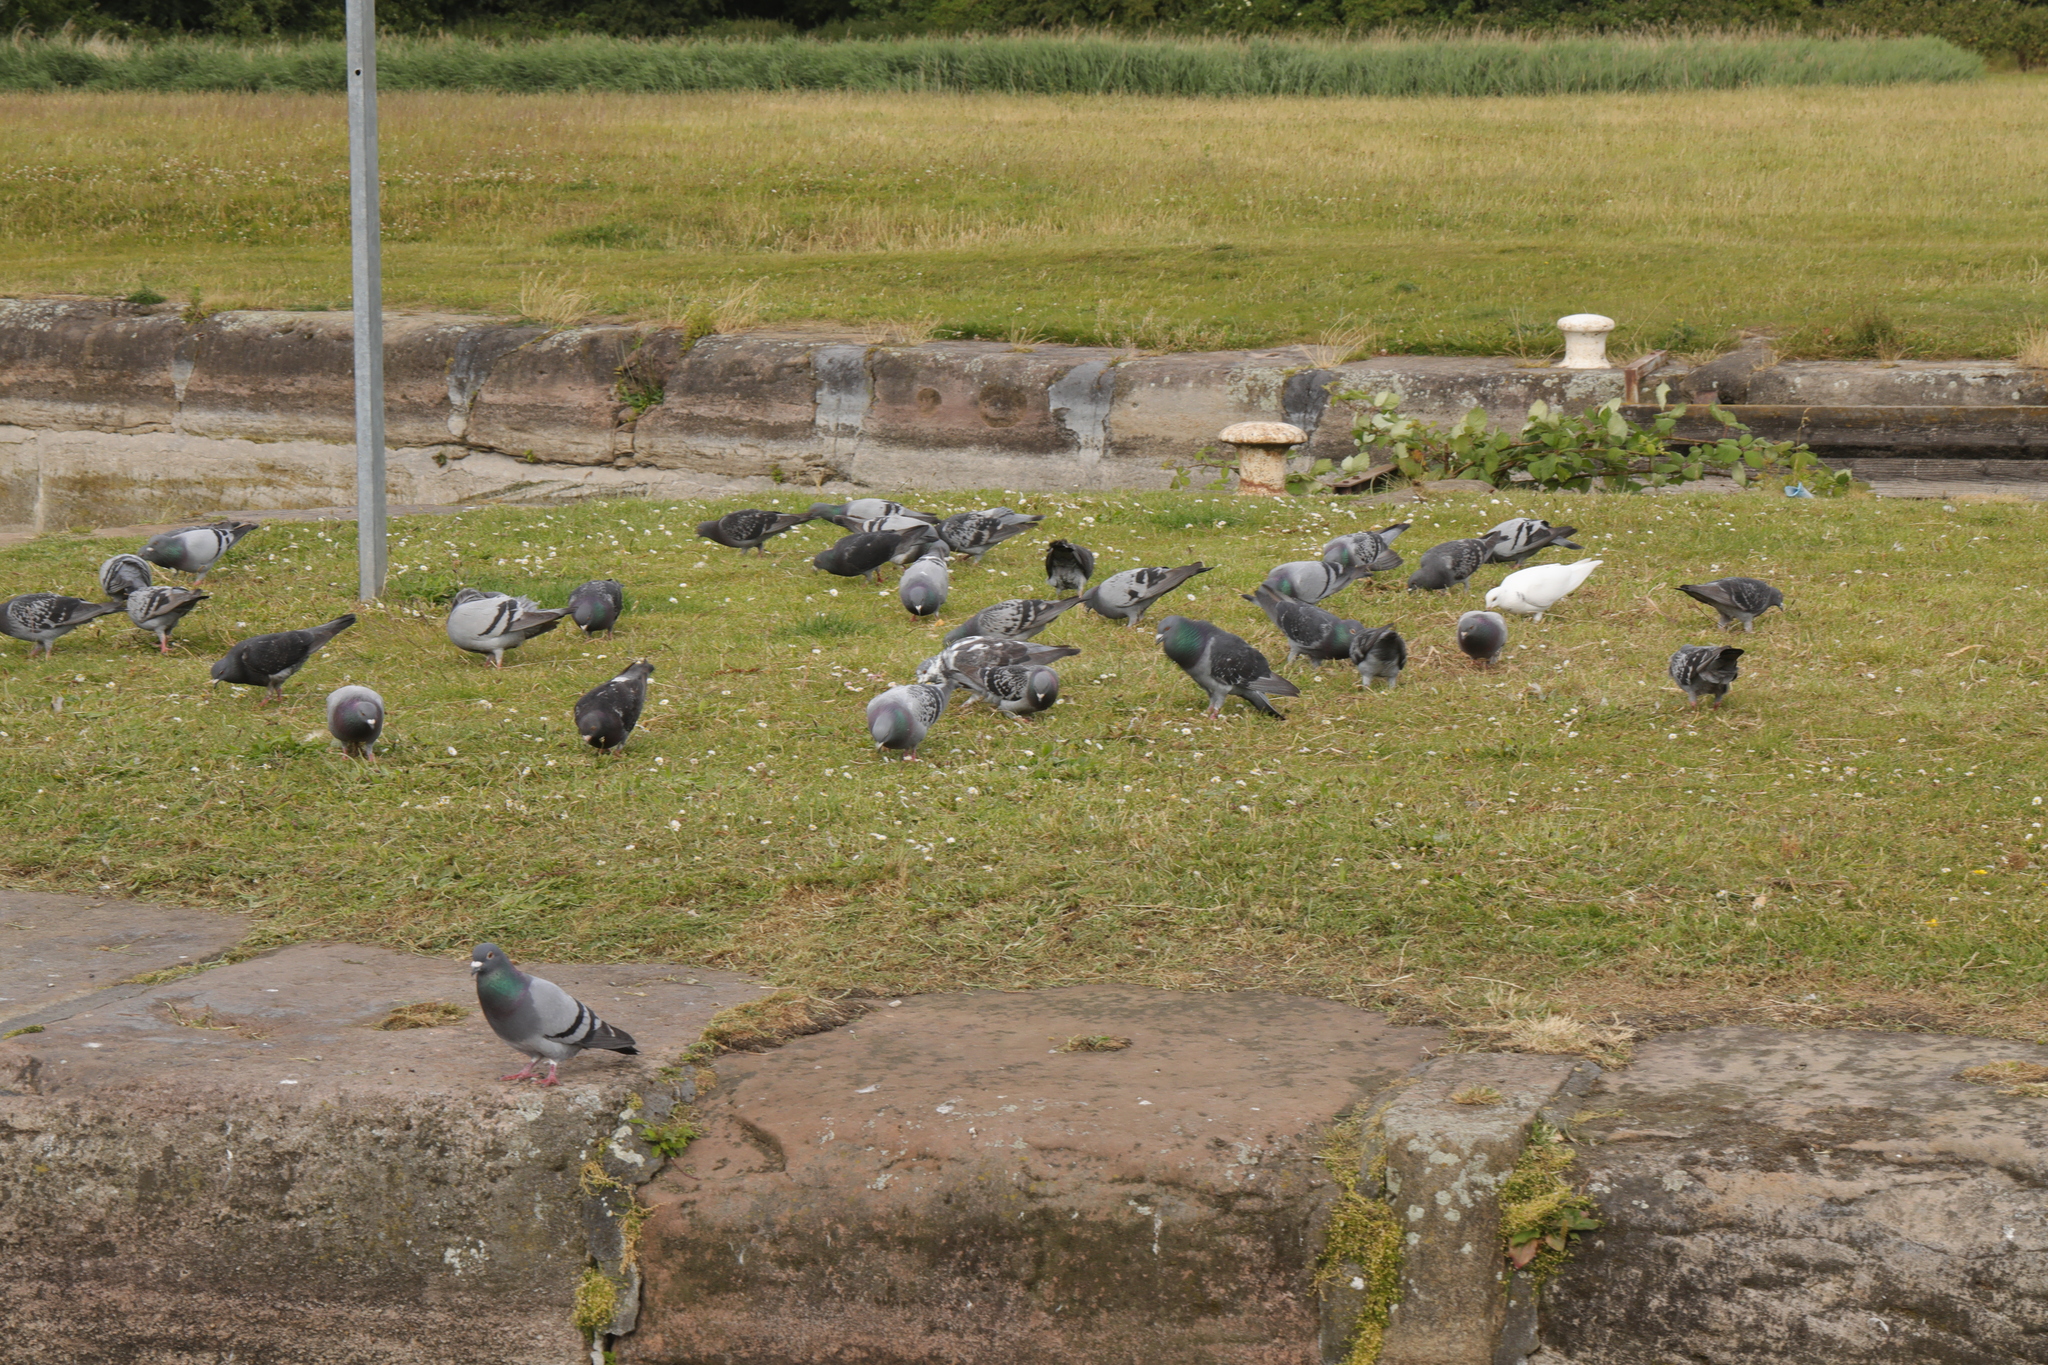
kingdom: Animalia
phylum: Chordata
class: Aves
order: Columbiformes
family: Columbidae
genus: Columba
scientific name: Columba livia
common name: Rock pigeon
